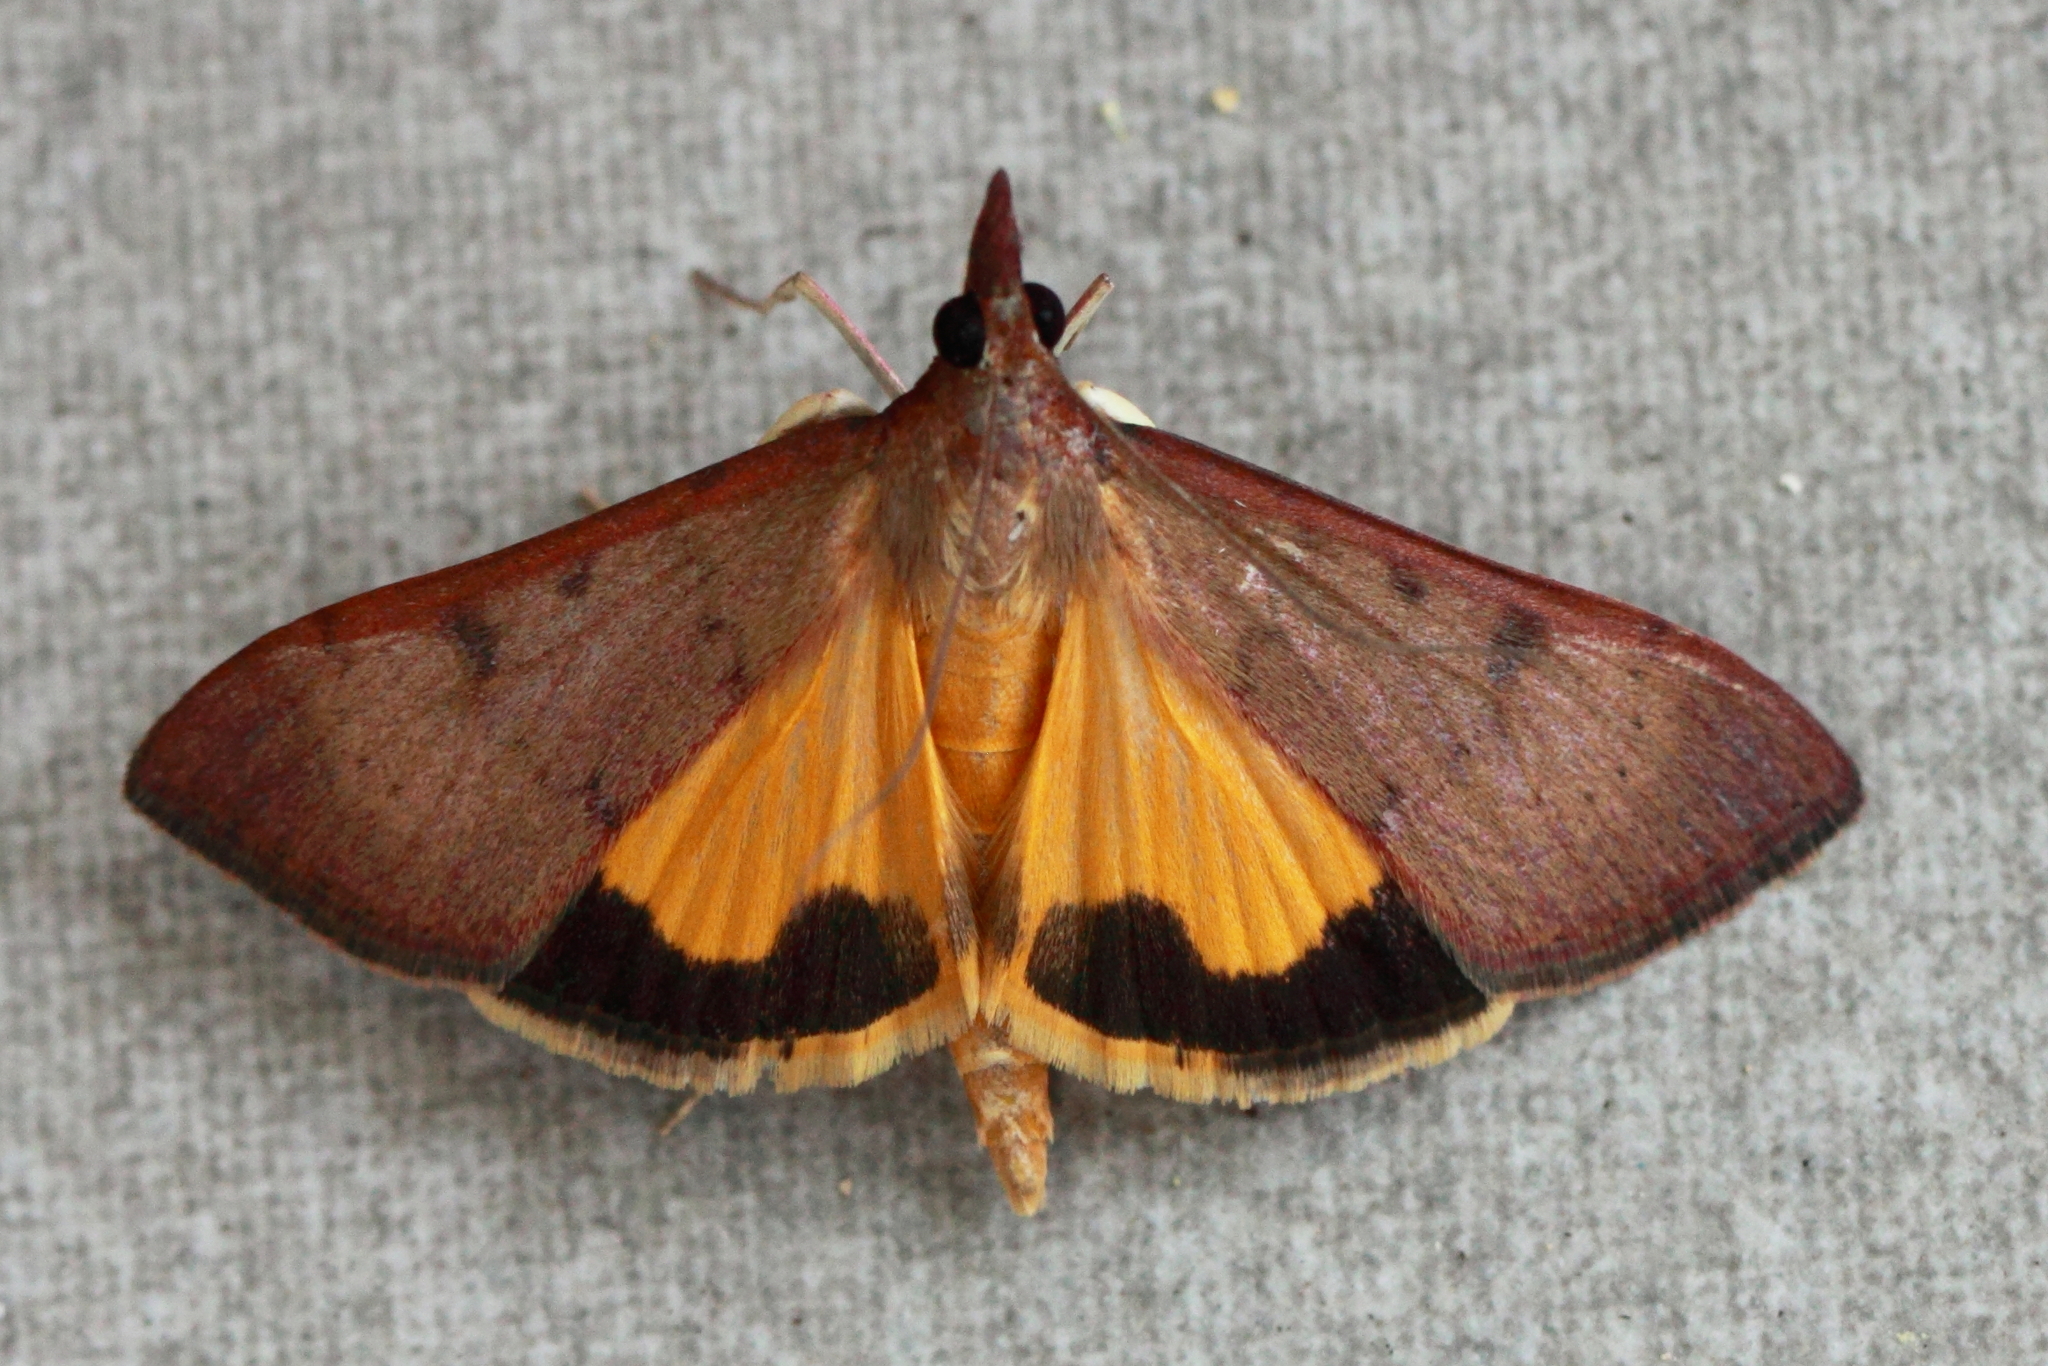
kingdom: Animalia
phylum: Arthropoda
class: Insecta
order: Lepidoptera
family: Crambidae
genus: Uresiphita
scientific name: Uresiphita ornithopteralis
